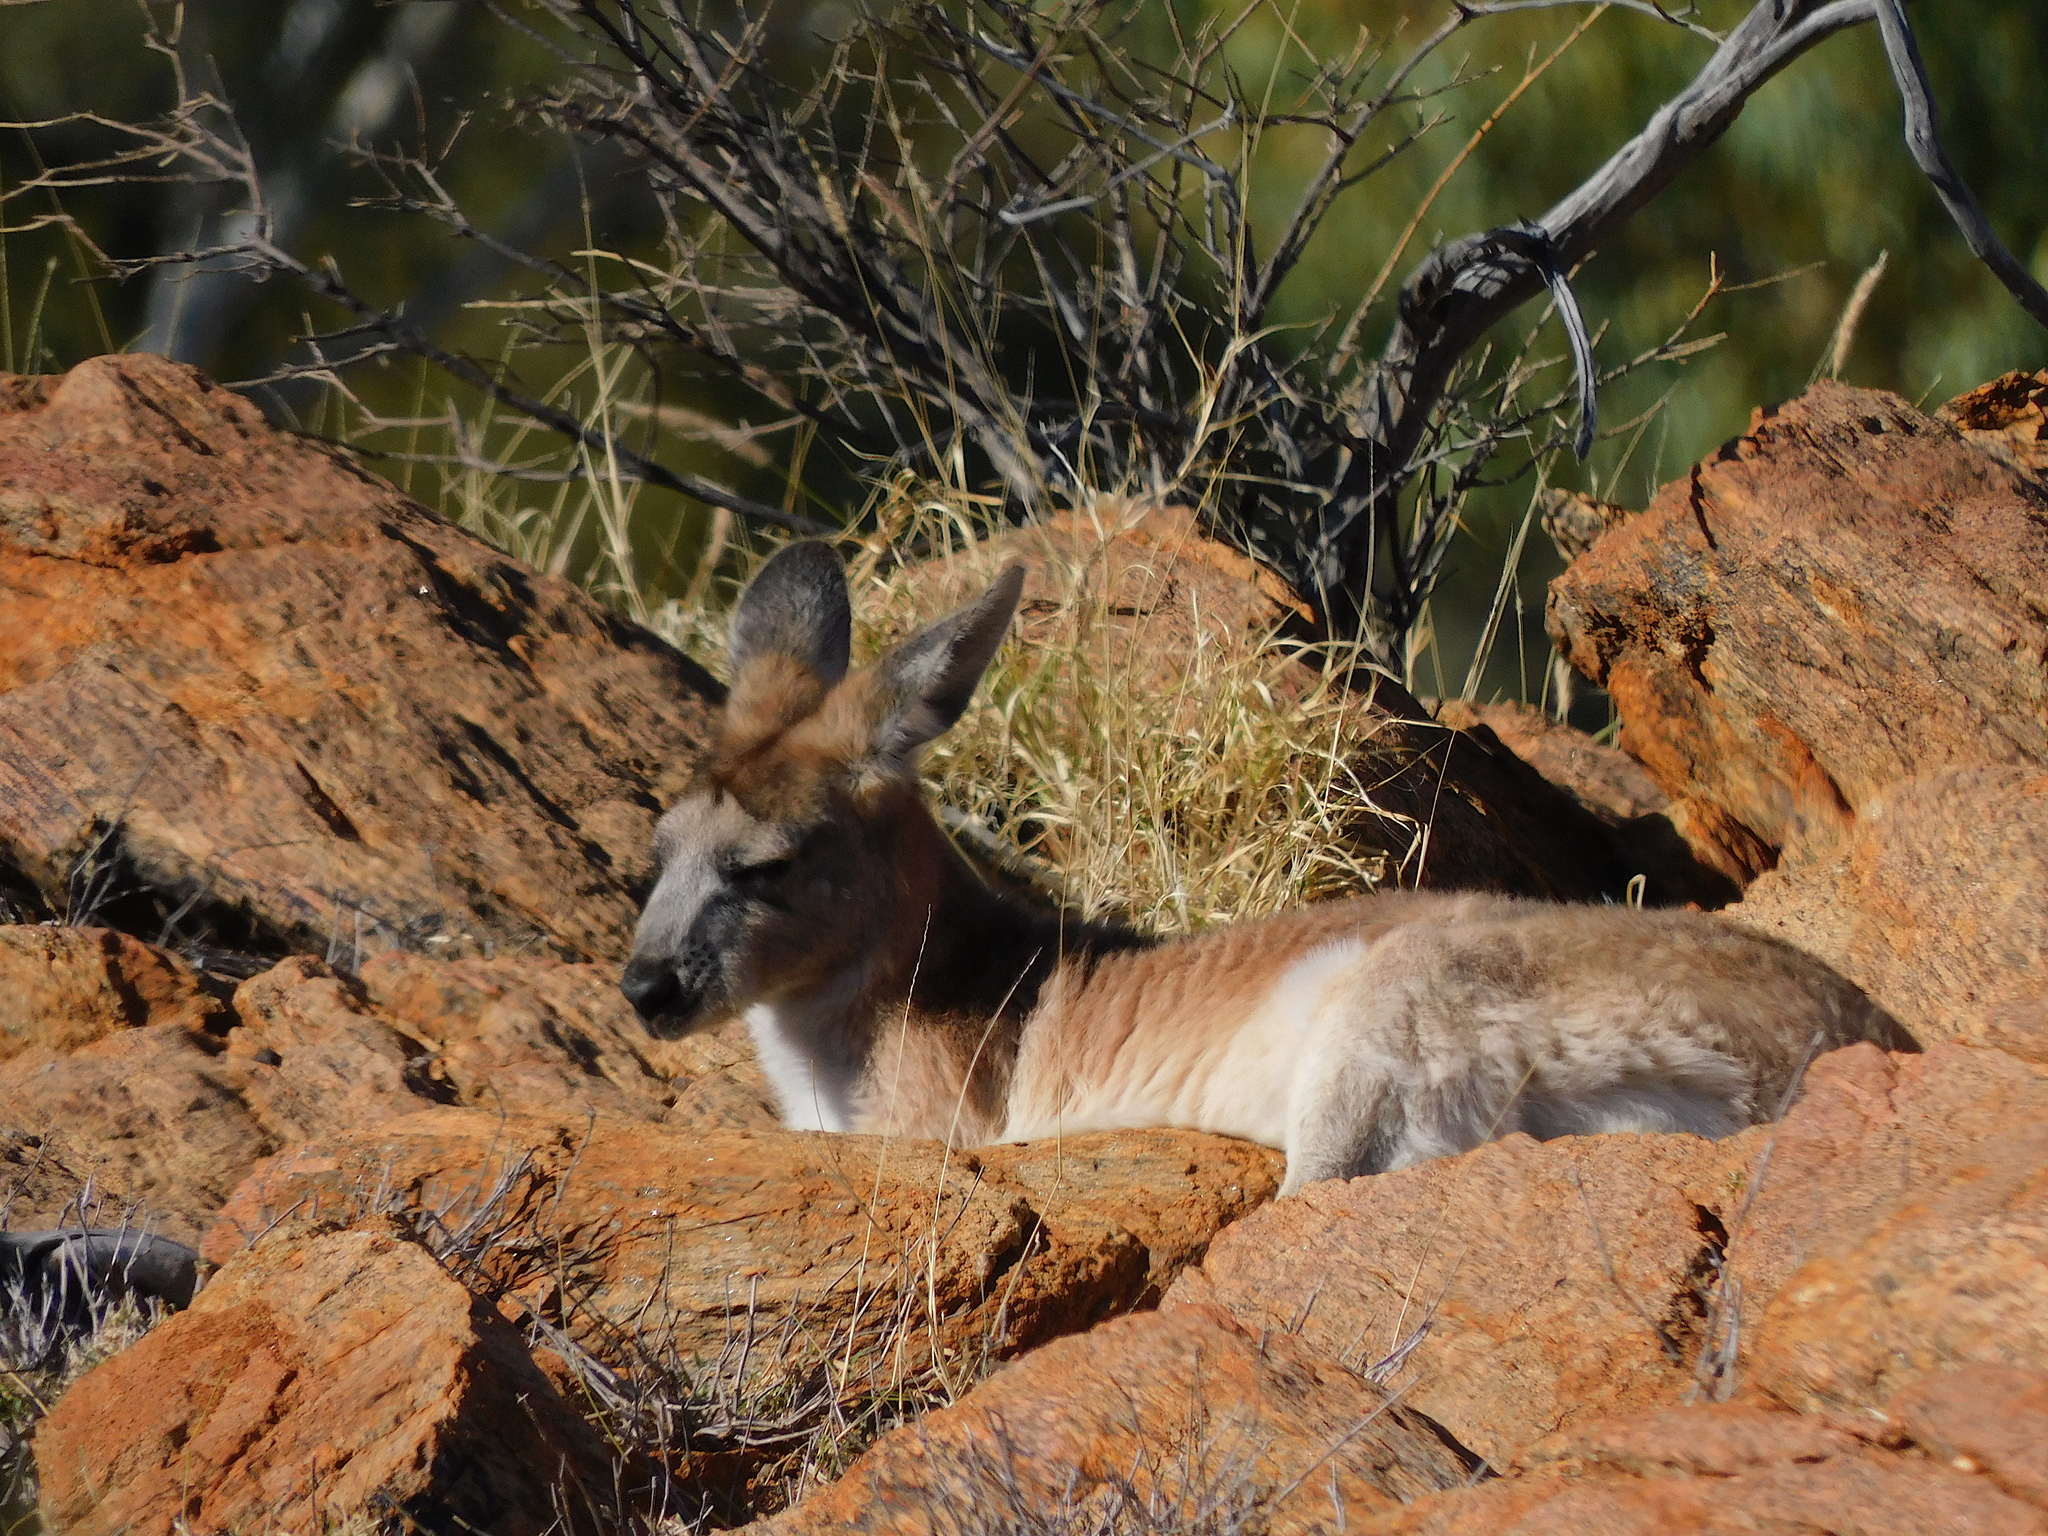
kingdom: Animalia
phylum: Chordata
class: Mammalia
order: Diprotodontia
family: Macropodidae
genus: Macropus
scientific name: Macropus robustus
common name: Eastern wallaroo
